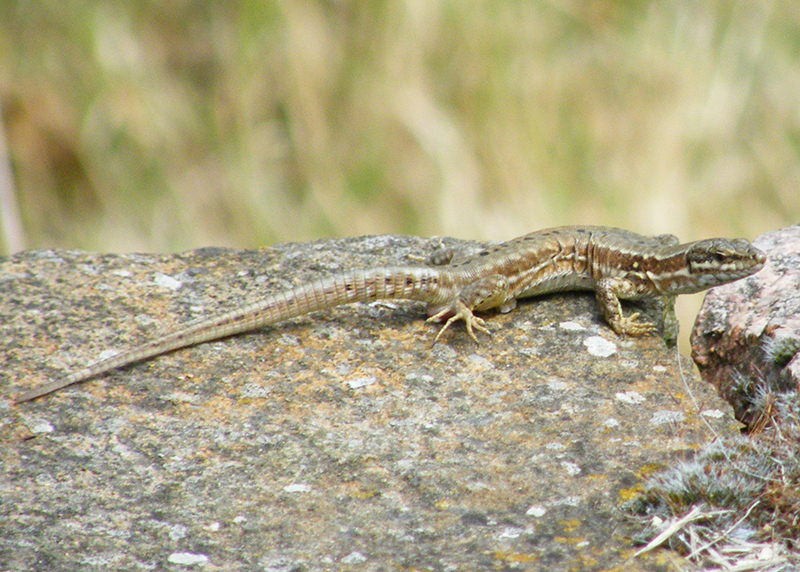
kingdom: Animalia
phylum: Chordata
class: Squamata
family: Lacertidae
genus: Podarcis
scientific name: Podarcis muralis
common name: Common wall lizard
